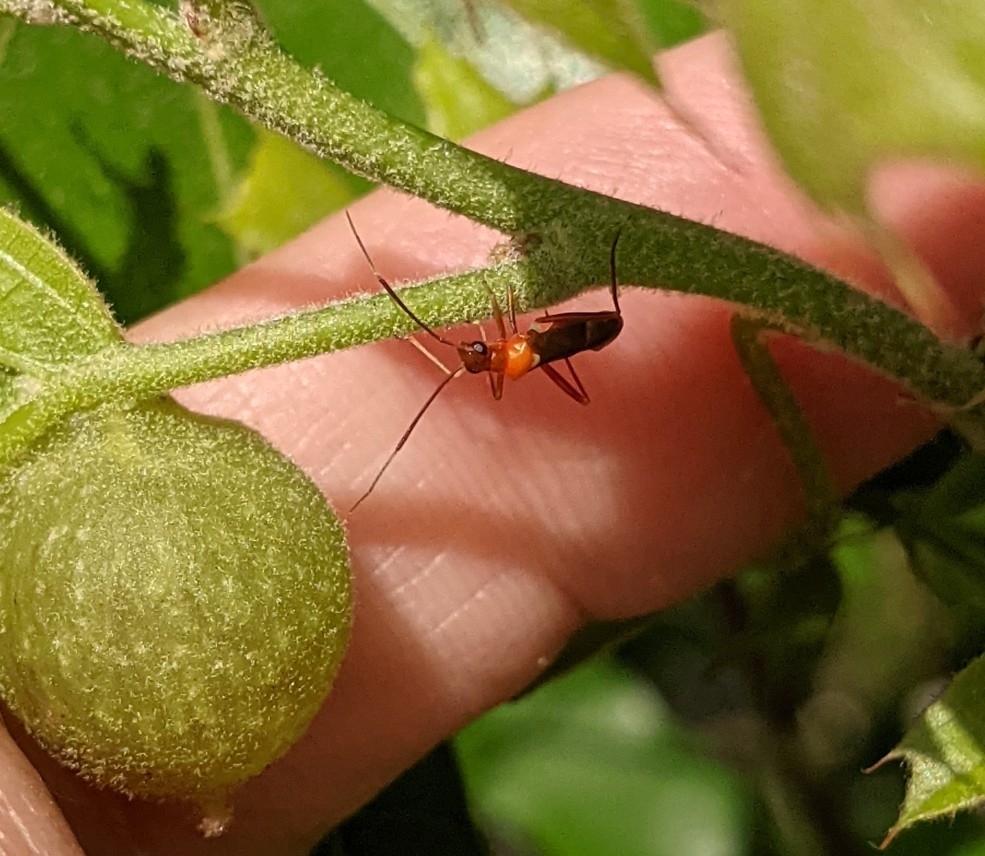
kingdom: Animalia
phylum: Arthropoda
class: Insecta
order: Hemiptera
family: Miridae
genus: Pseudoxenetus
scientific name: Pseudoxenetus regalis
